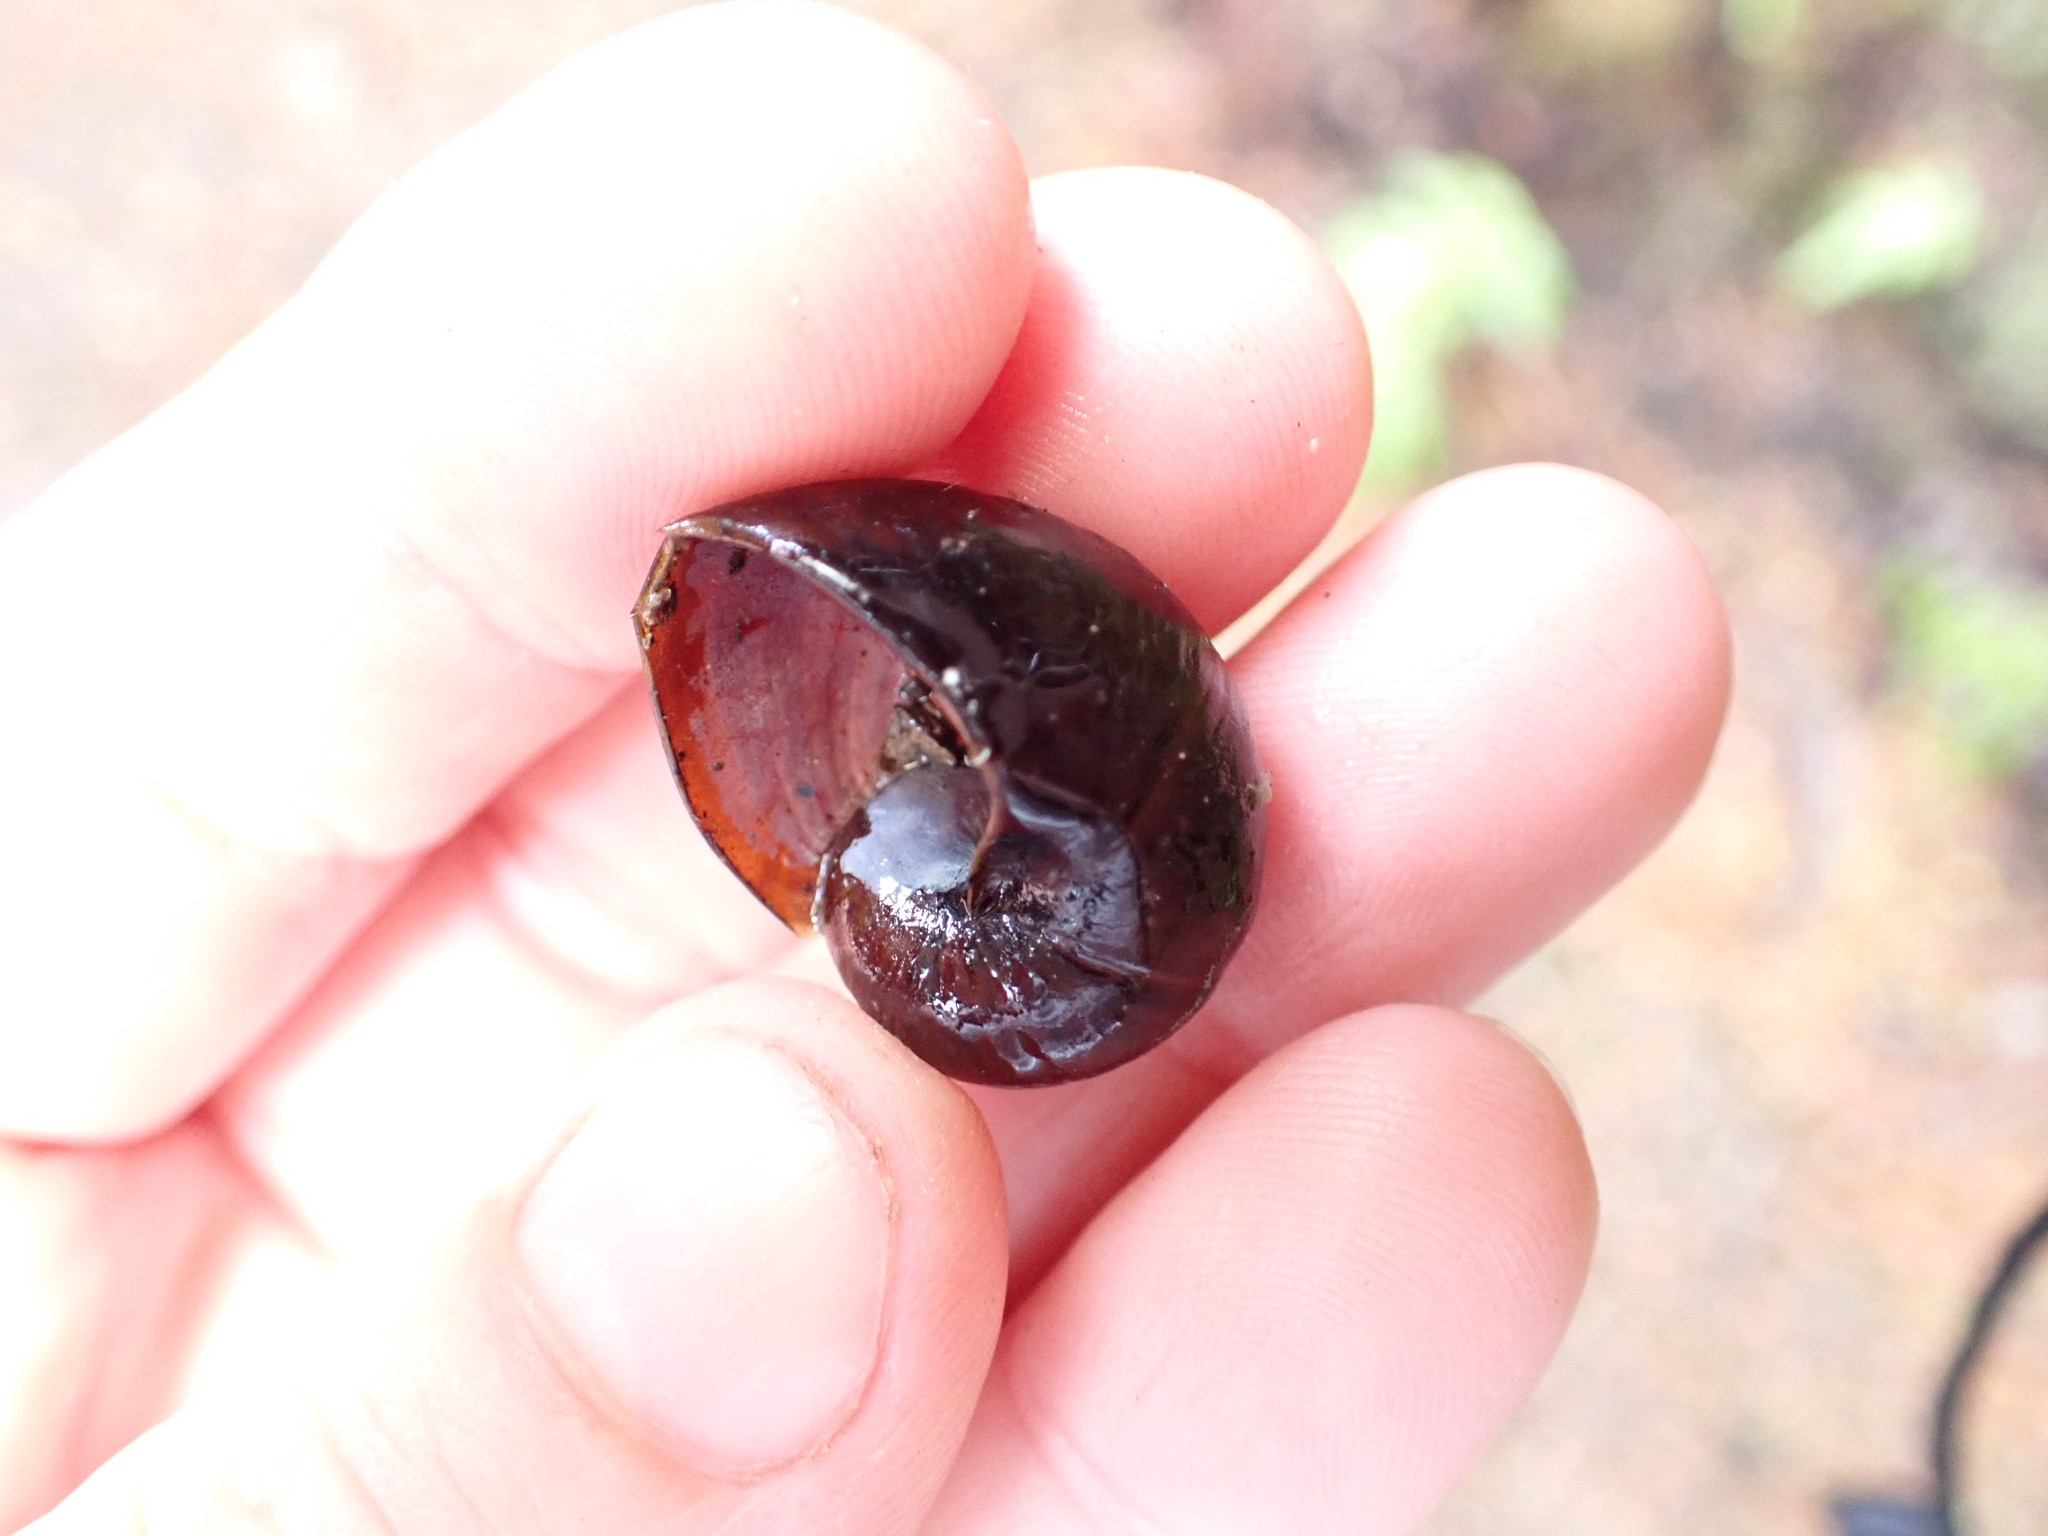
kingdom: Animalia
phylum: Mollusca
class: Gastropoda
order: Stylommatophora
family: Rhytididae
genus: Wainuia
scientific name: Wainuia urnula
